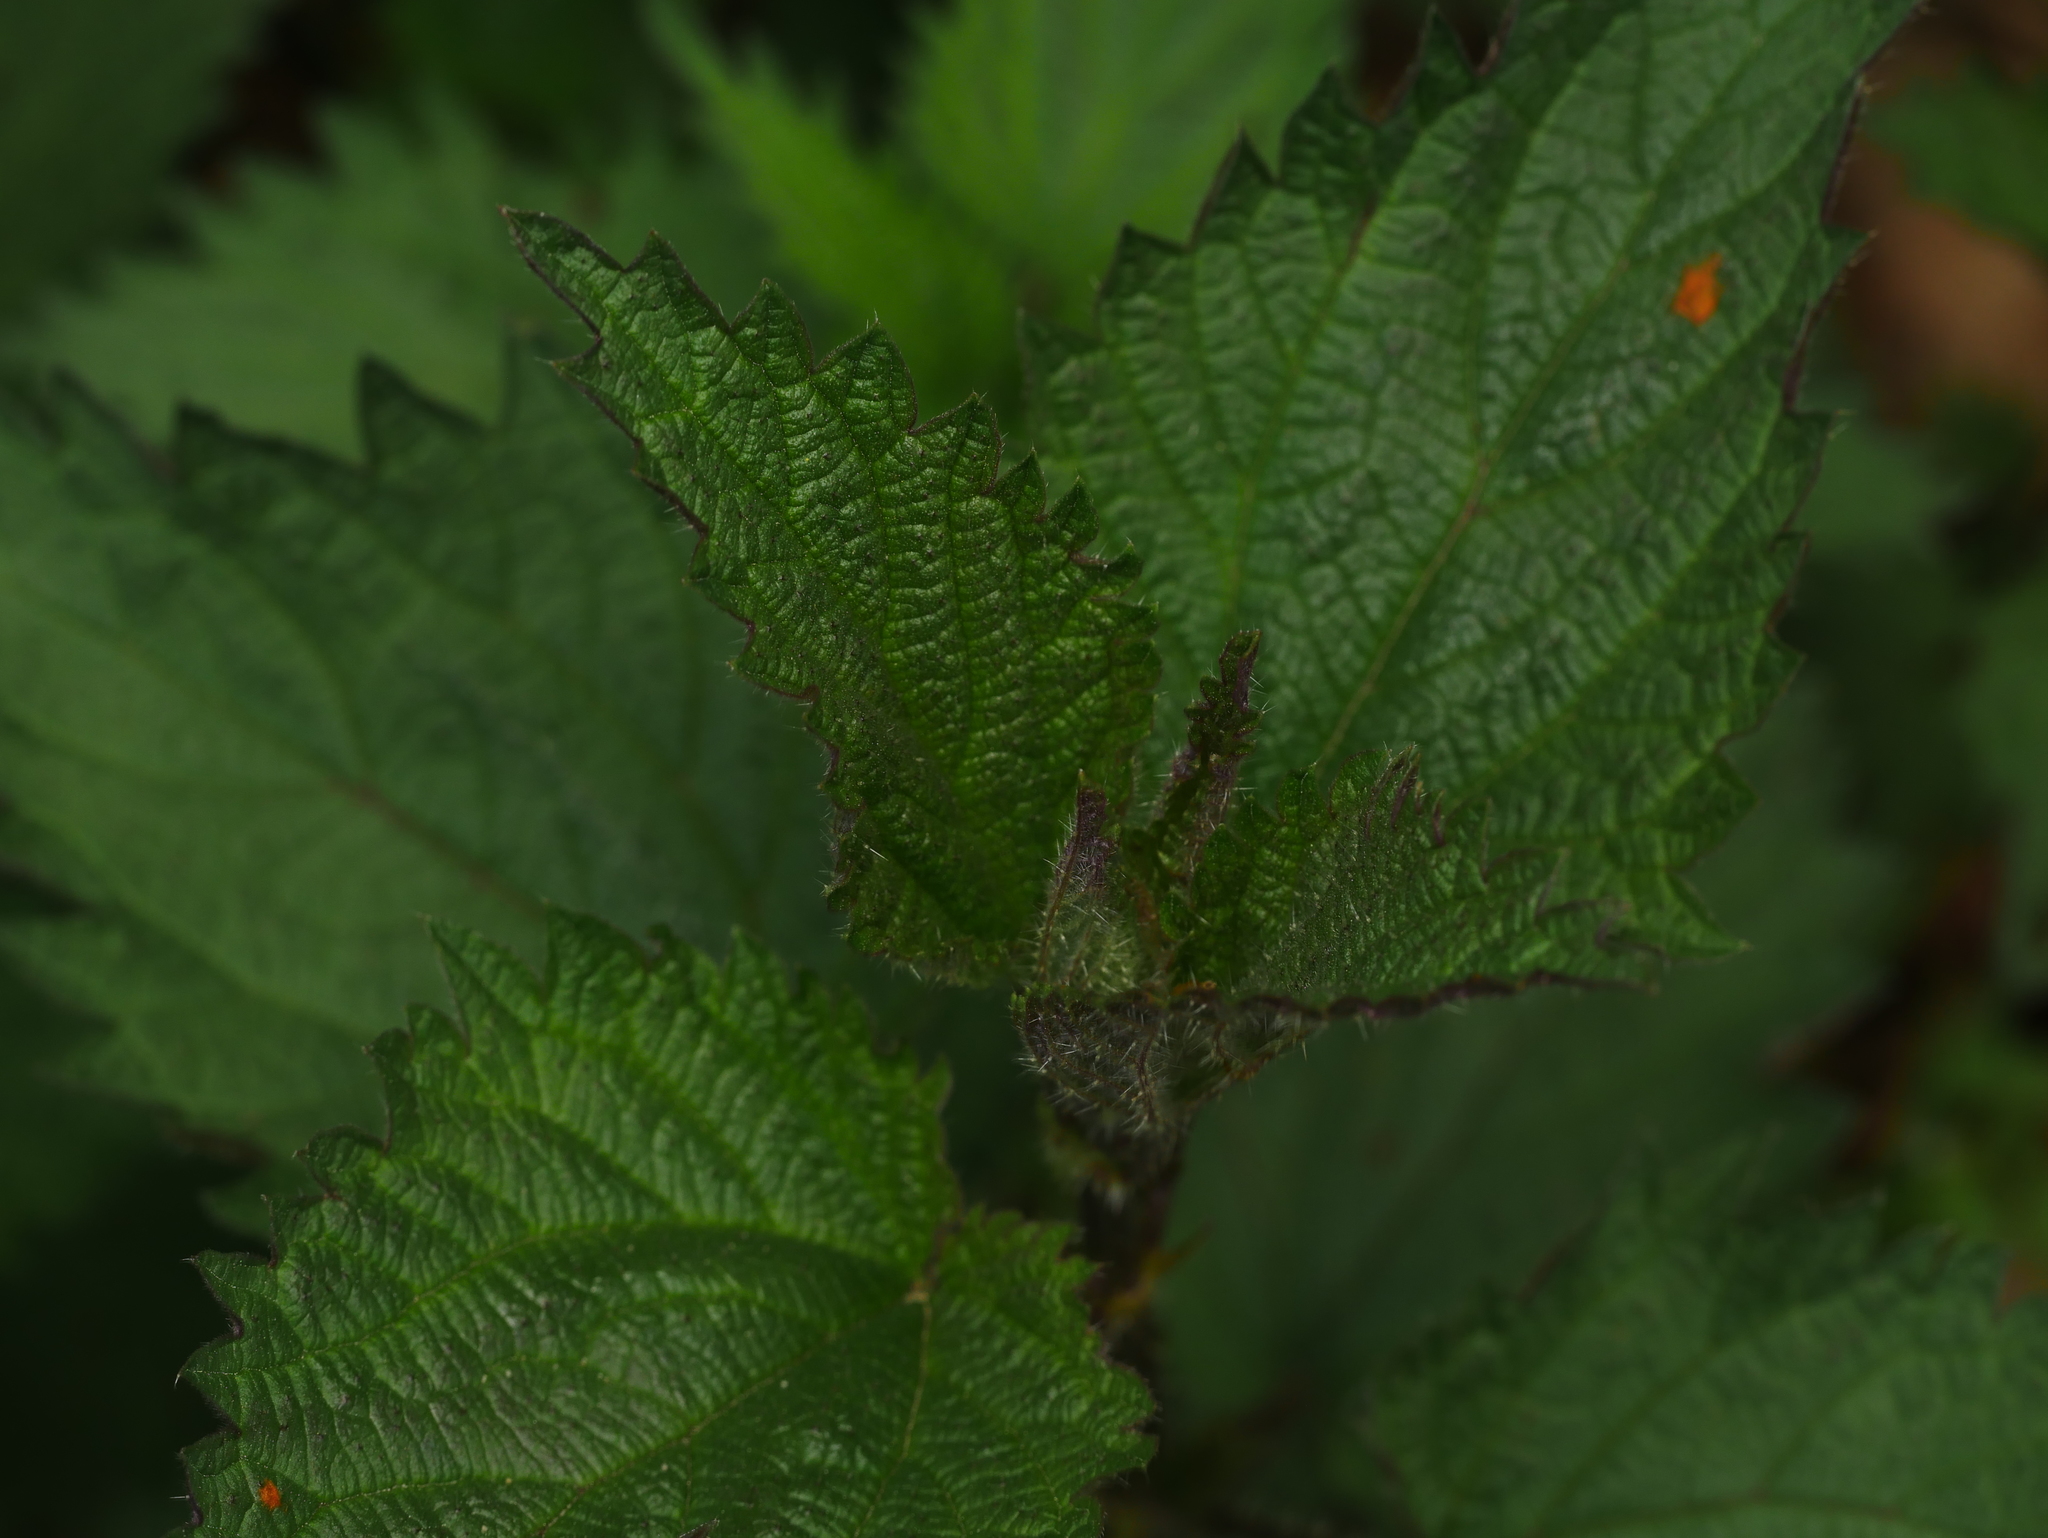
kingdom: Plantae
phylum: Tracheophyta
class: Magnoliopsida
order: Rosales
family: Urticaceae
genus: Urtica
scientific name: Urtica dioica
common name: Common nettle
